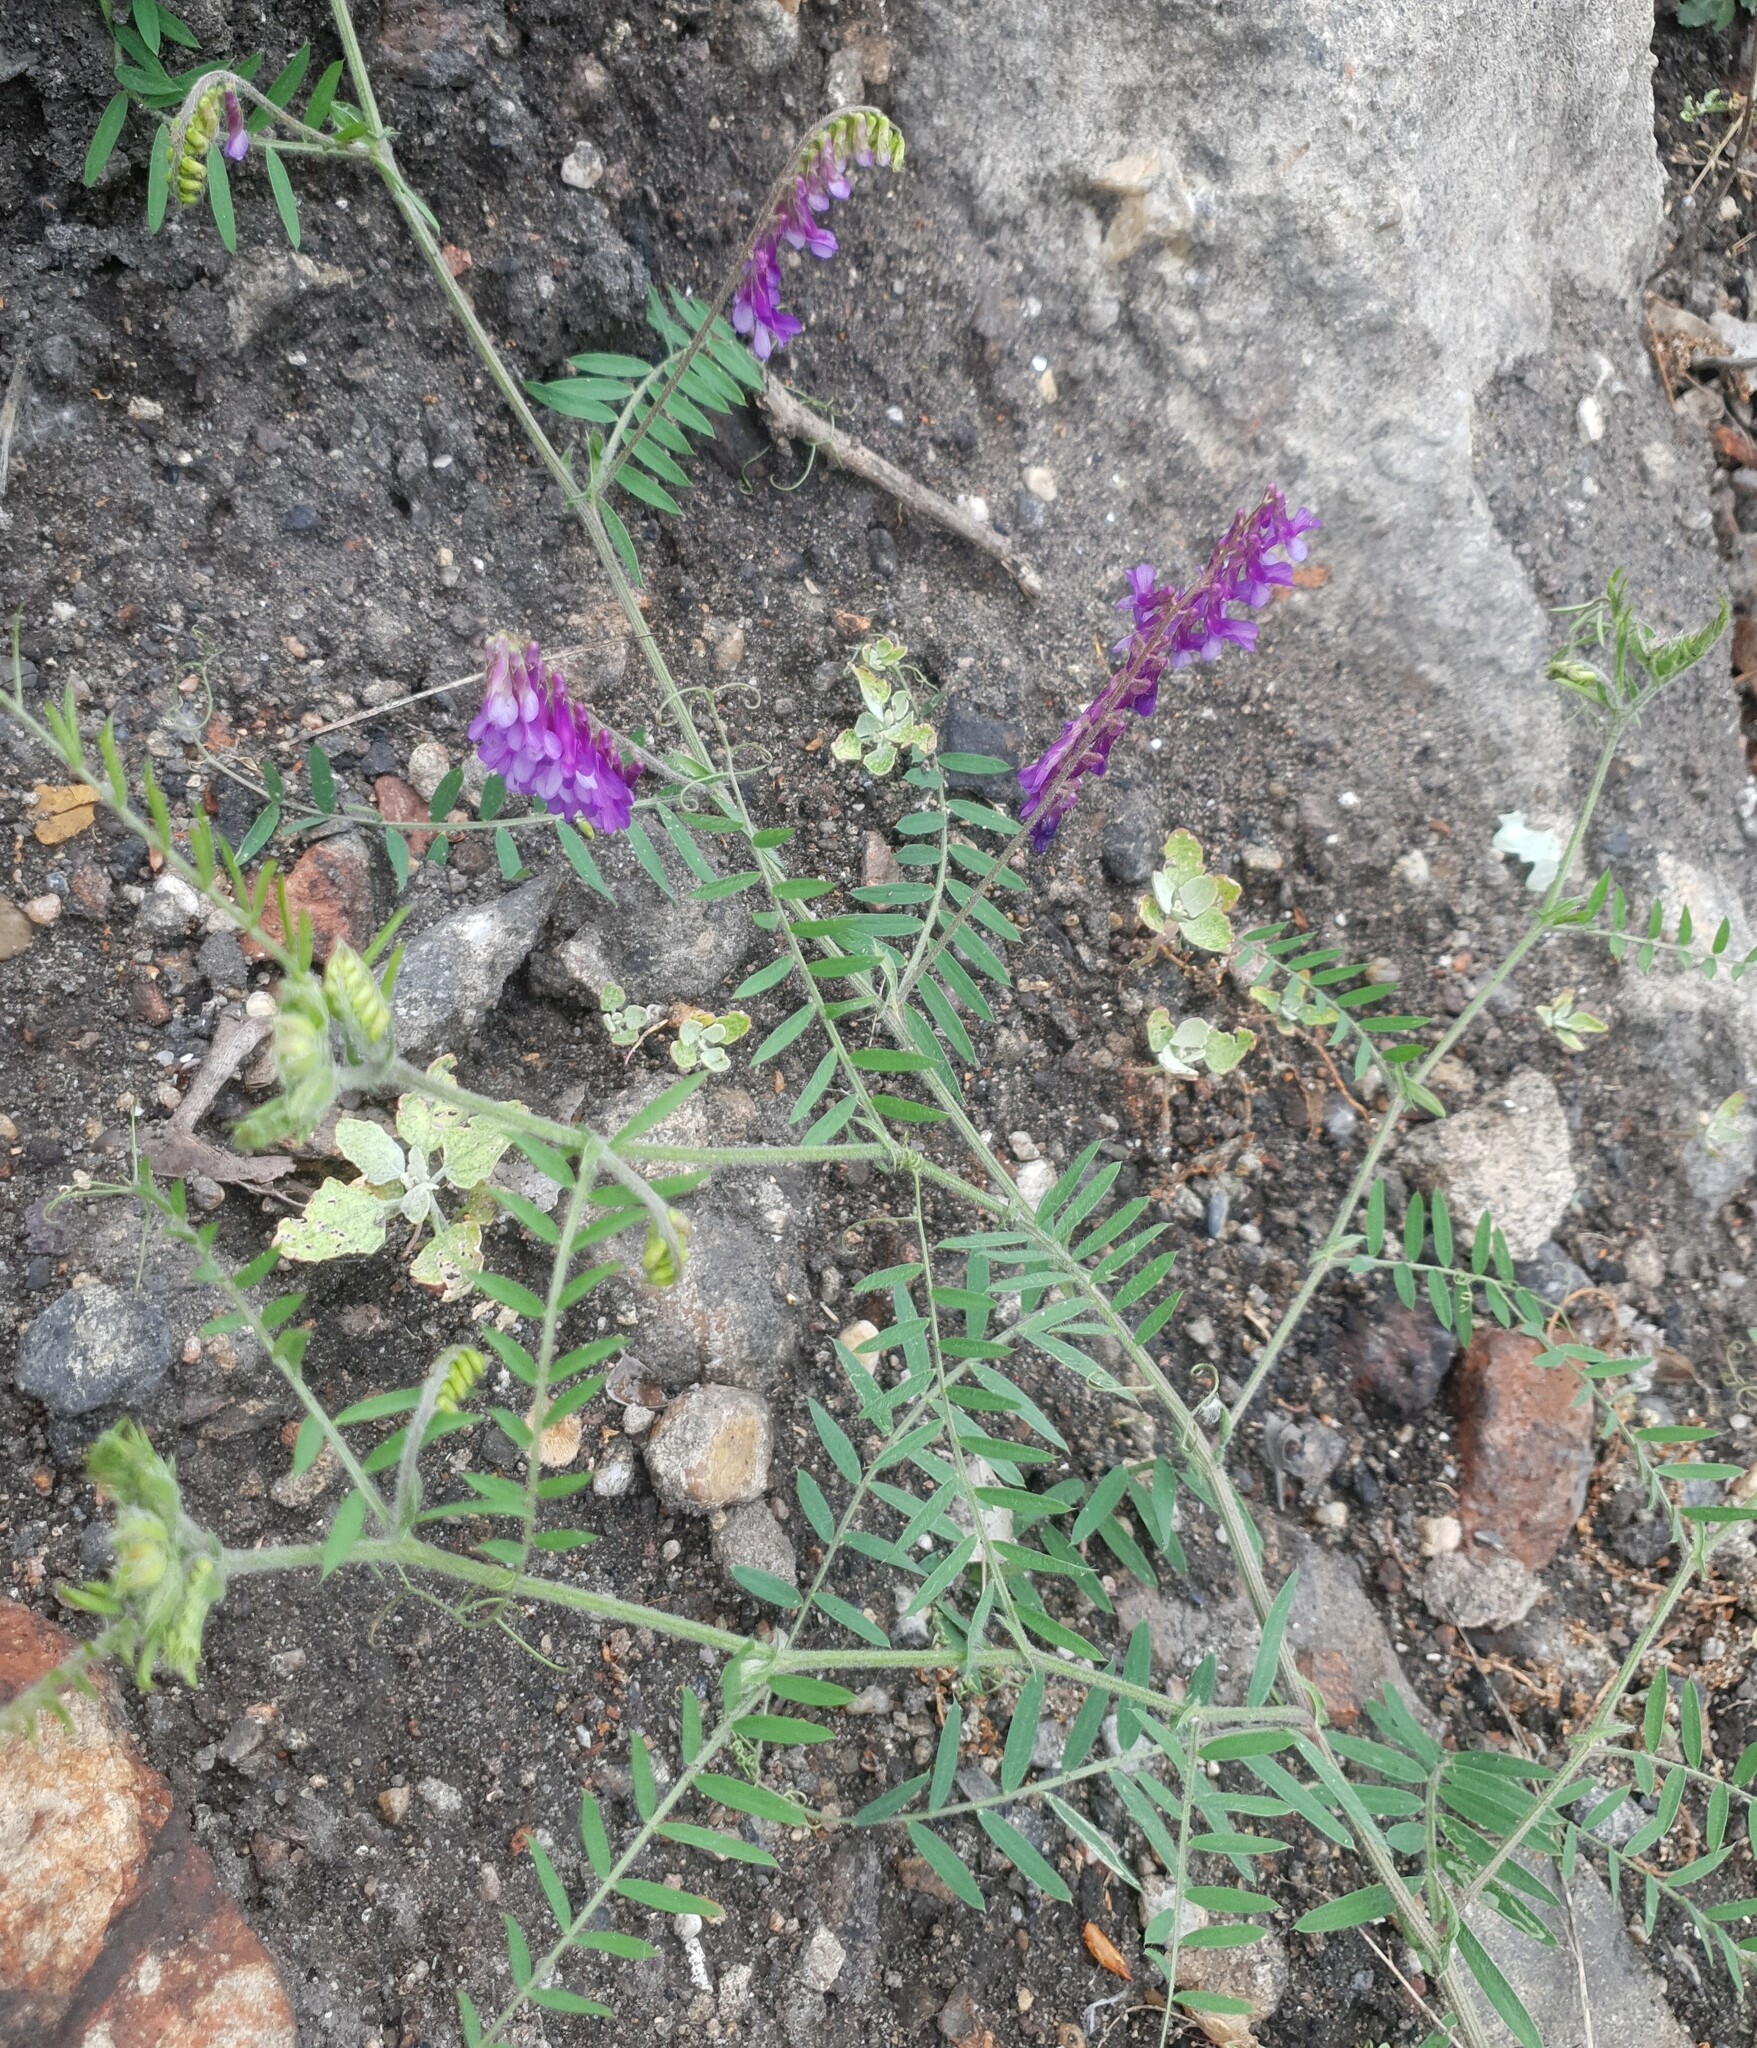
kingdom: Plantae
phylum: Tracheophyta
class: Magnoliopsida
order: Fabales
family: Fabaceae
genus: Vicia
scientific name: Vicia villosa
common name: Fodder vetch
